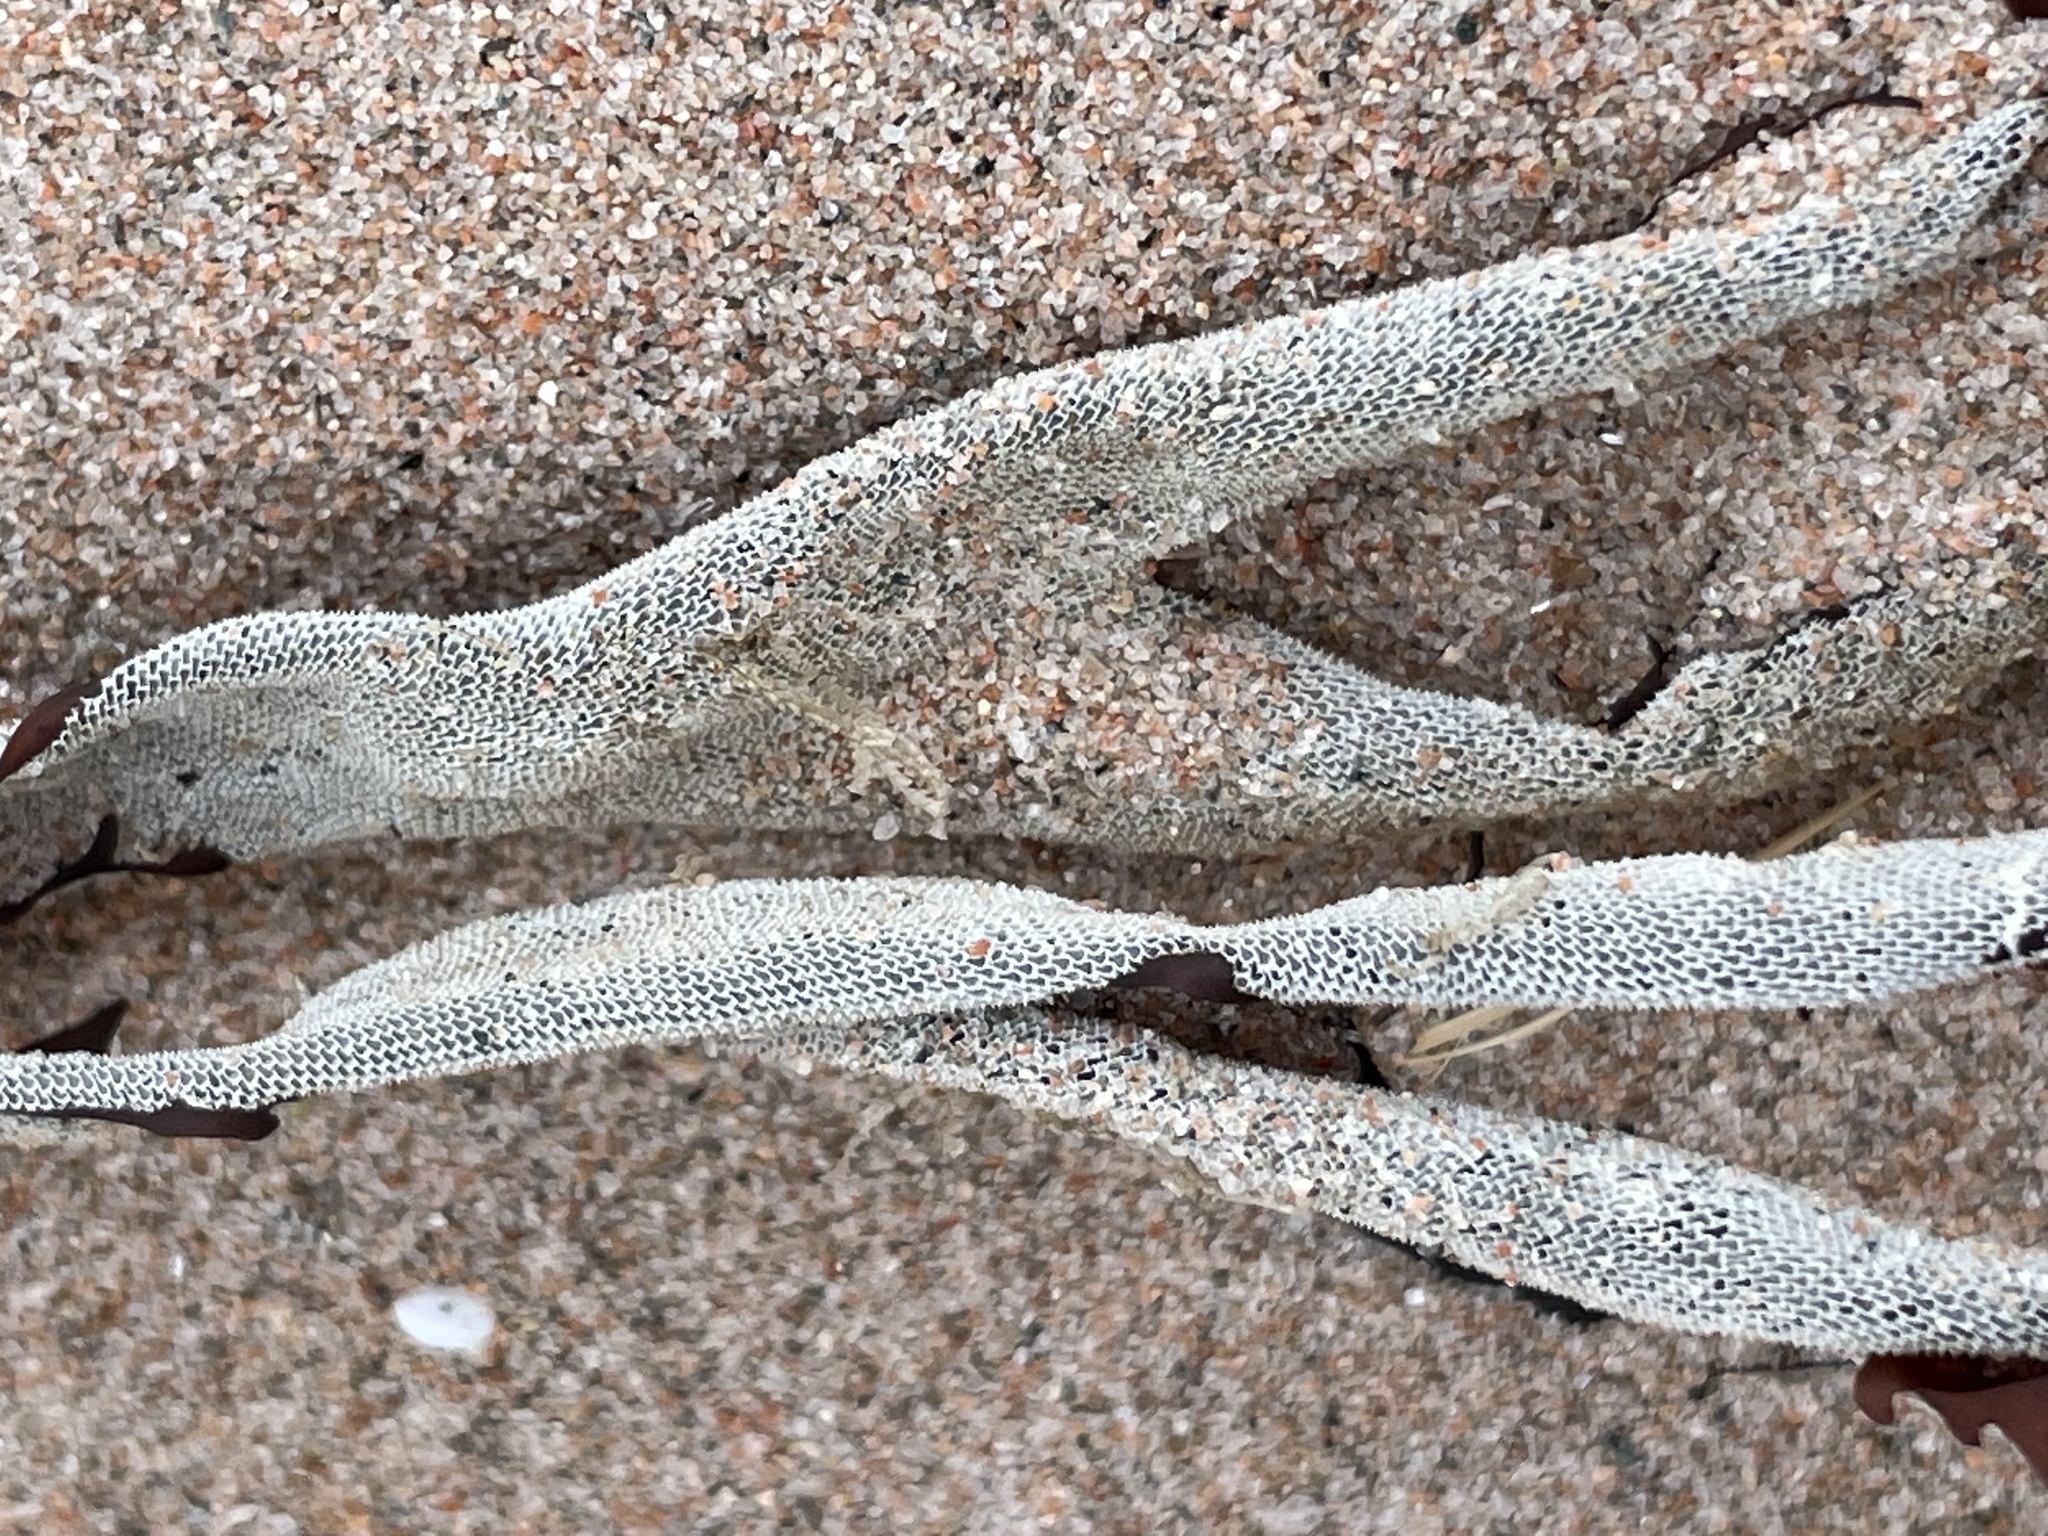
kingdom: Animalia
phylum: Bryozoa
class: Gymnolaemata
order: Cheilostomatida
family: Membraniporidae
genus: Membranipora
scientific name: Membranipora membranacea
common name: Sea mat
